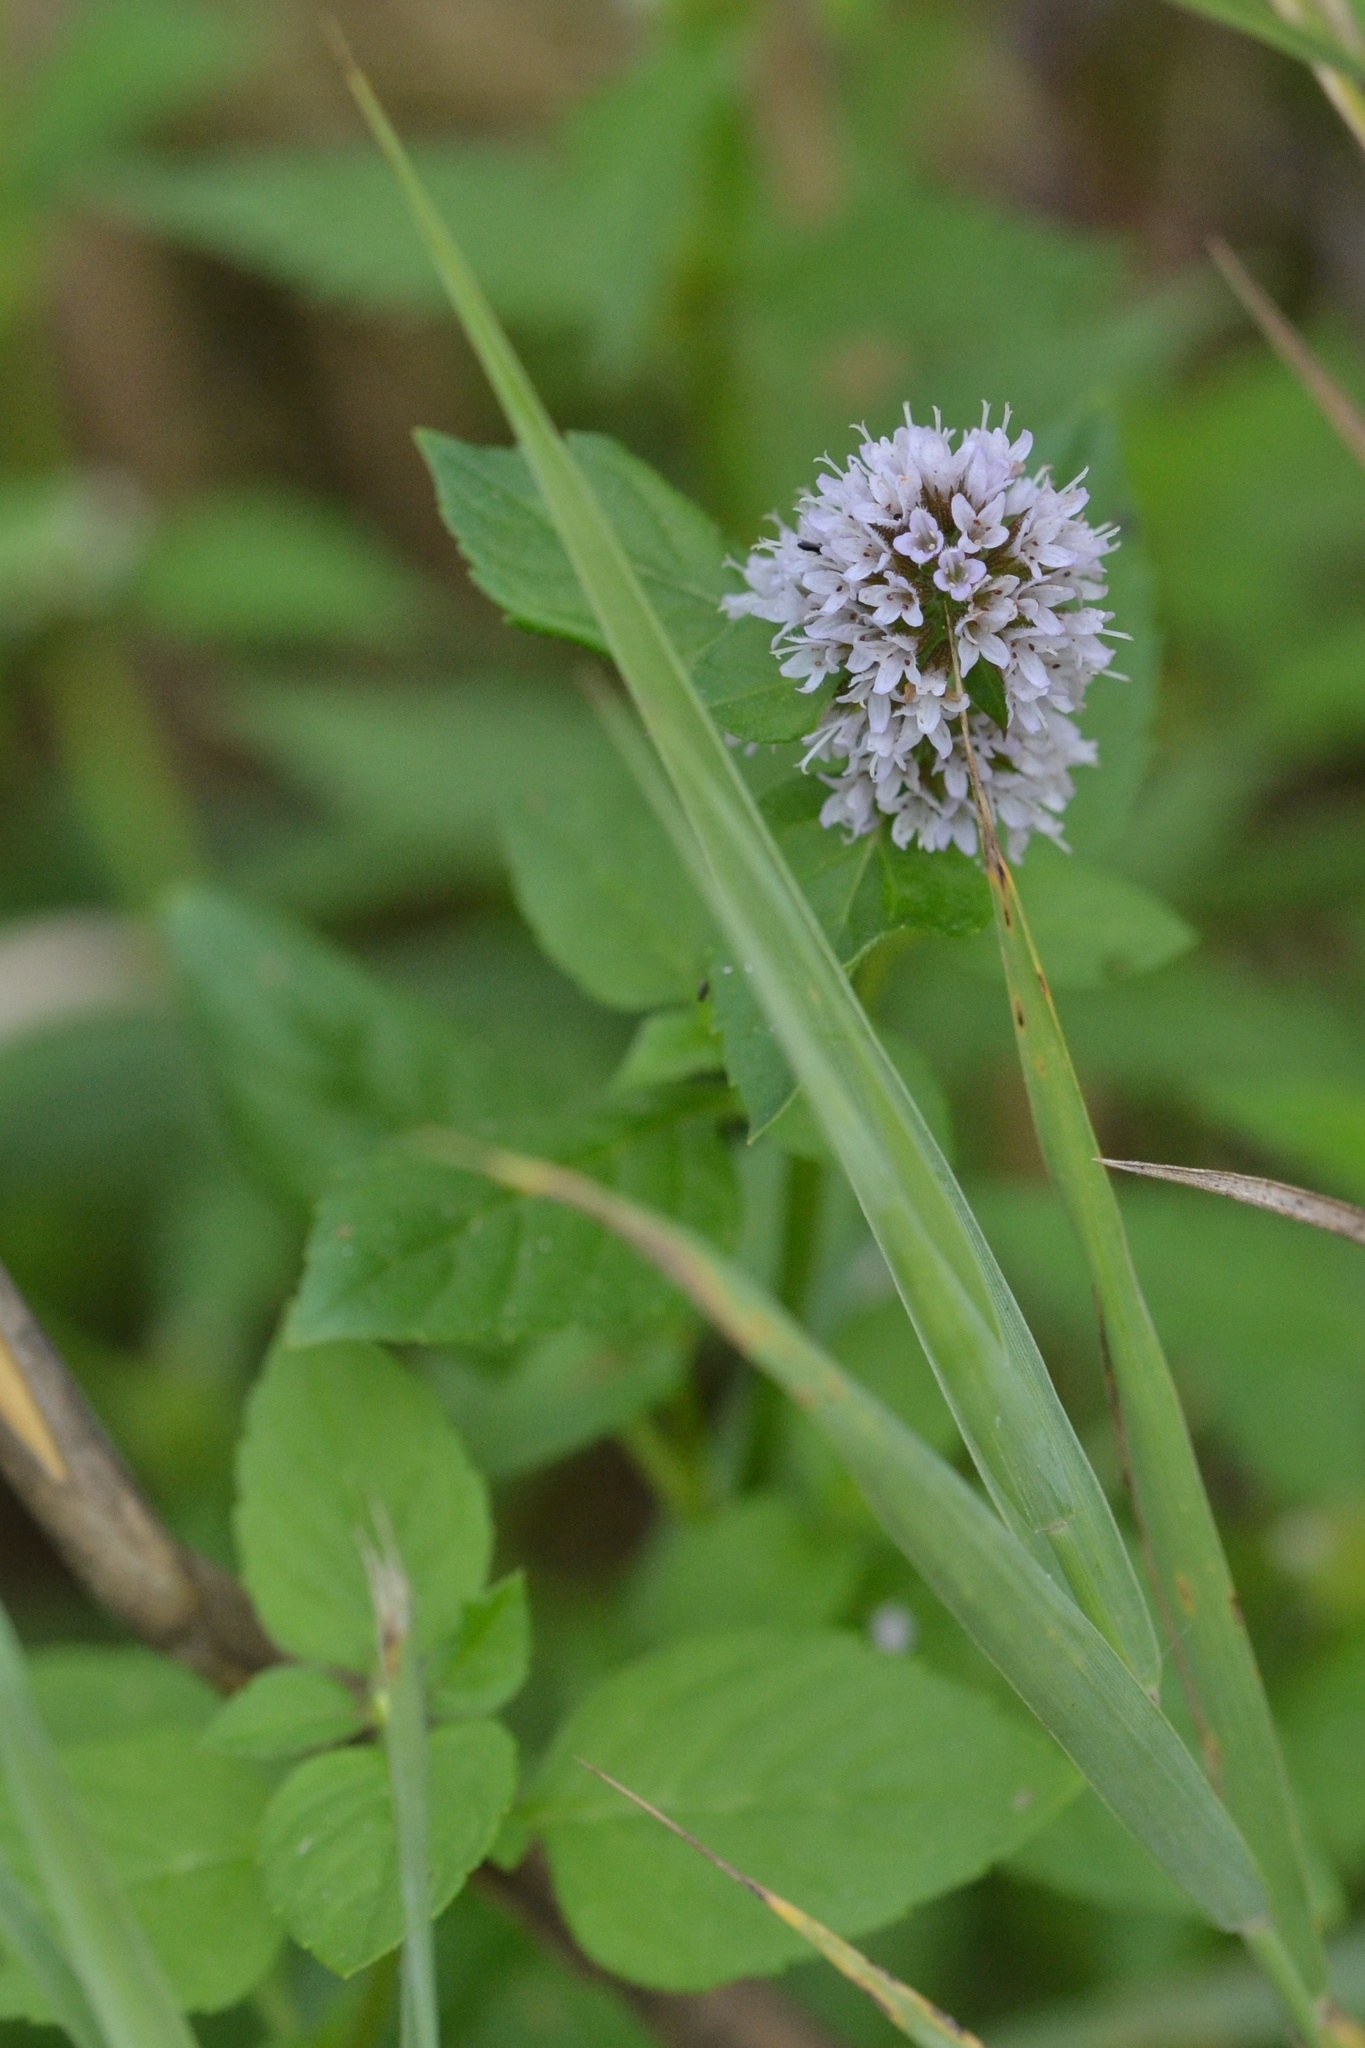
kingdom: Plantae
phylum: Tracheophyta
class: Magnoliopsida
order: Lamiales
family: Lamiaceae
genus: Mentha
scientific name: Mentha aquatica
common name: Water mint
